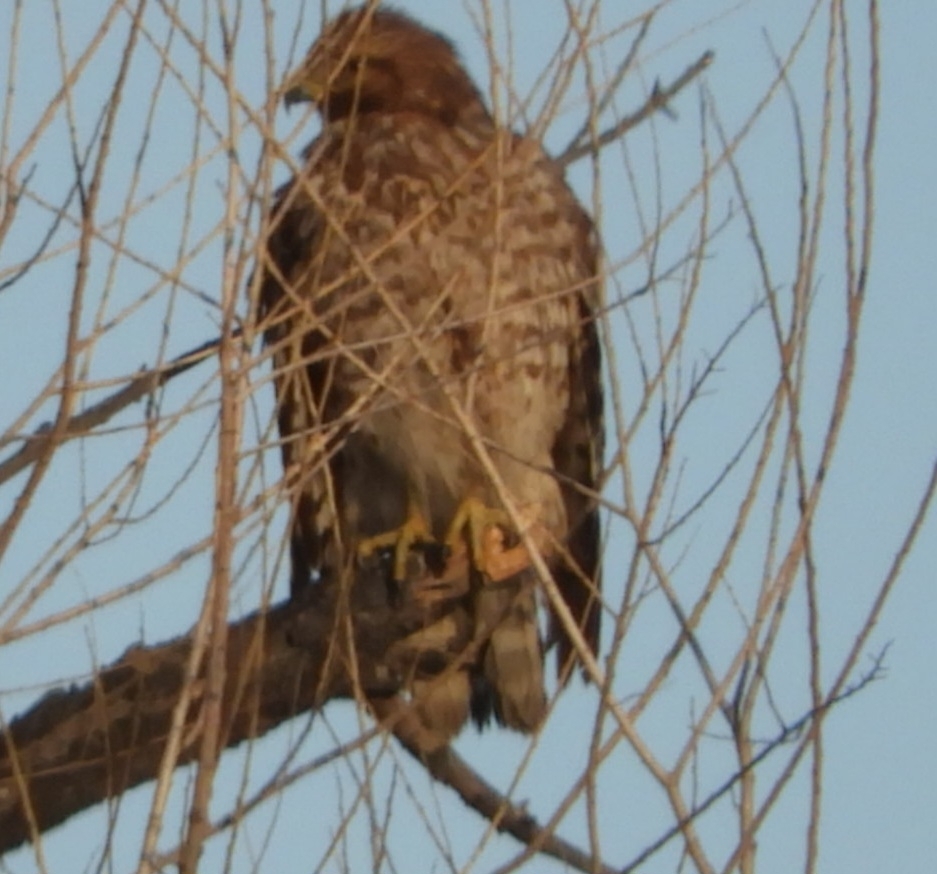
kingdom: Animalia
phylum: Chordata
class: Aves
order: Accipitriformes
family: Accipitridae
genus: Buteo
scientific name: Buteo lineatus
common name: Red-shouldered hawk
